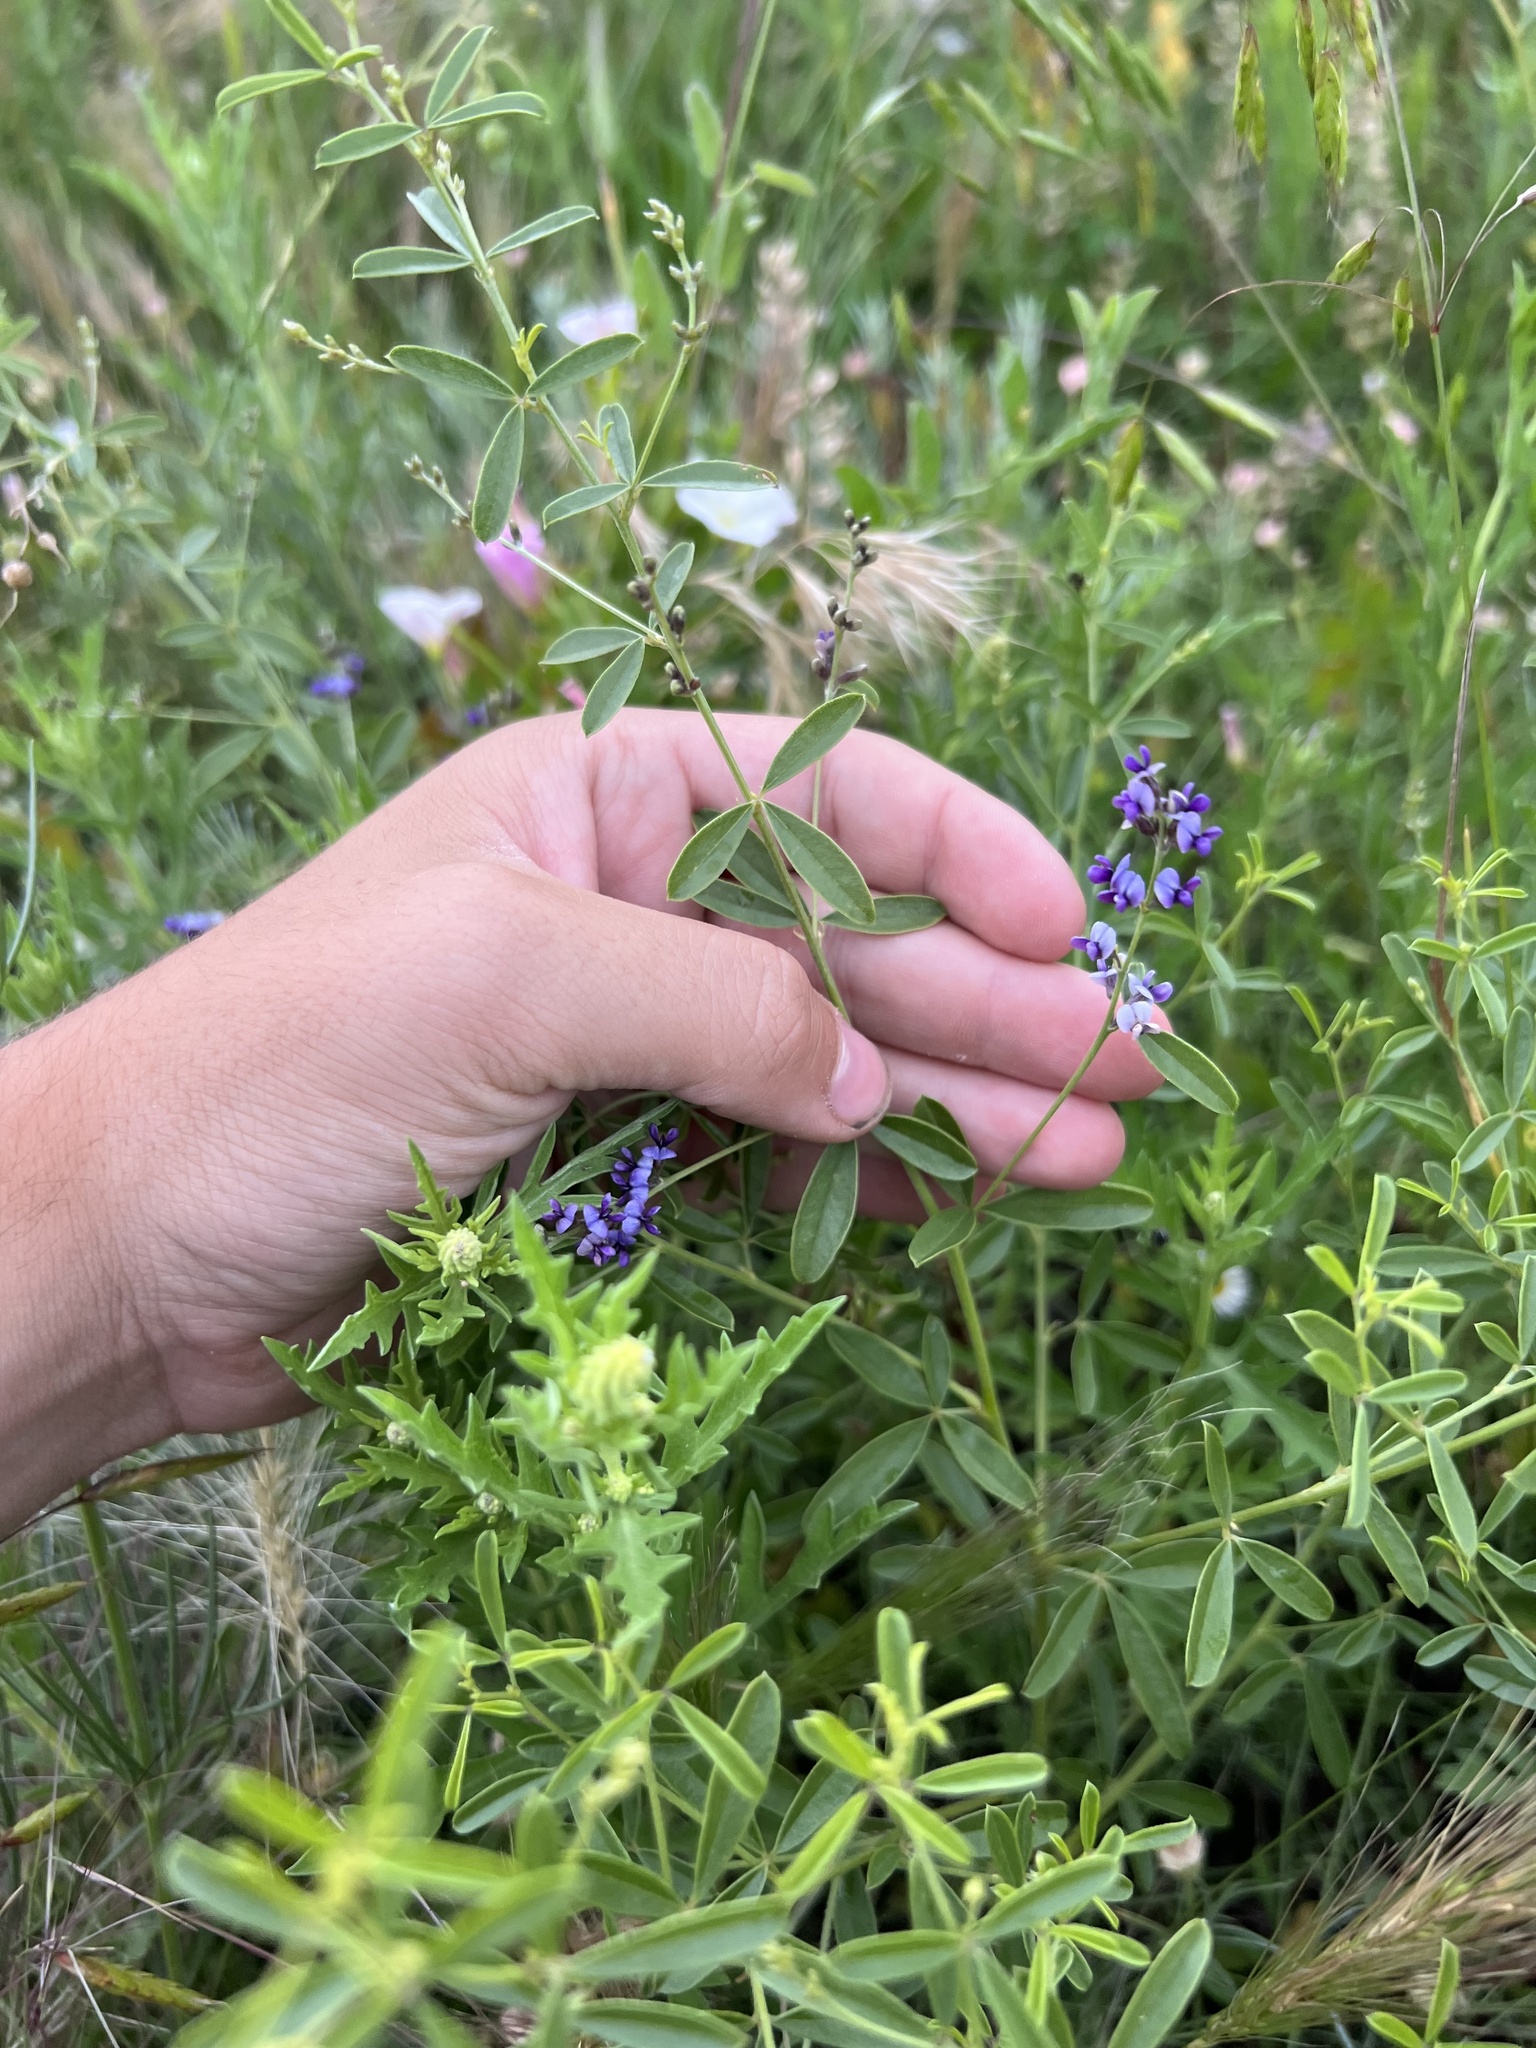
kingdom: Plantae
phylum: Tracheophyta
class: Magnoliopsida
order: Fabales
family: Fabaceae
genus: Pediomelum
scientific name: Pediomelum tenuiflorum
